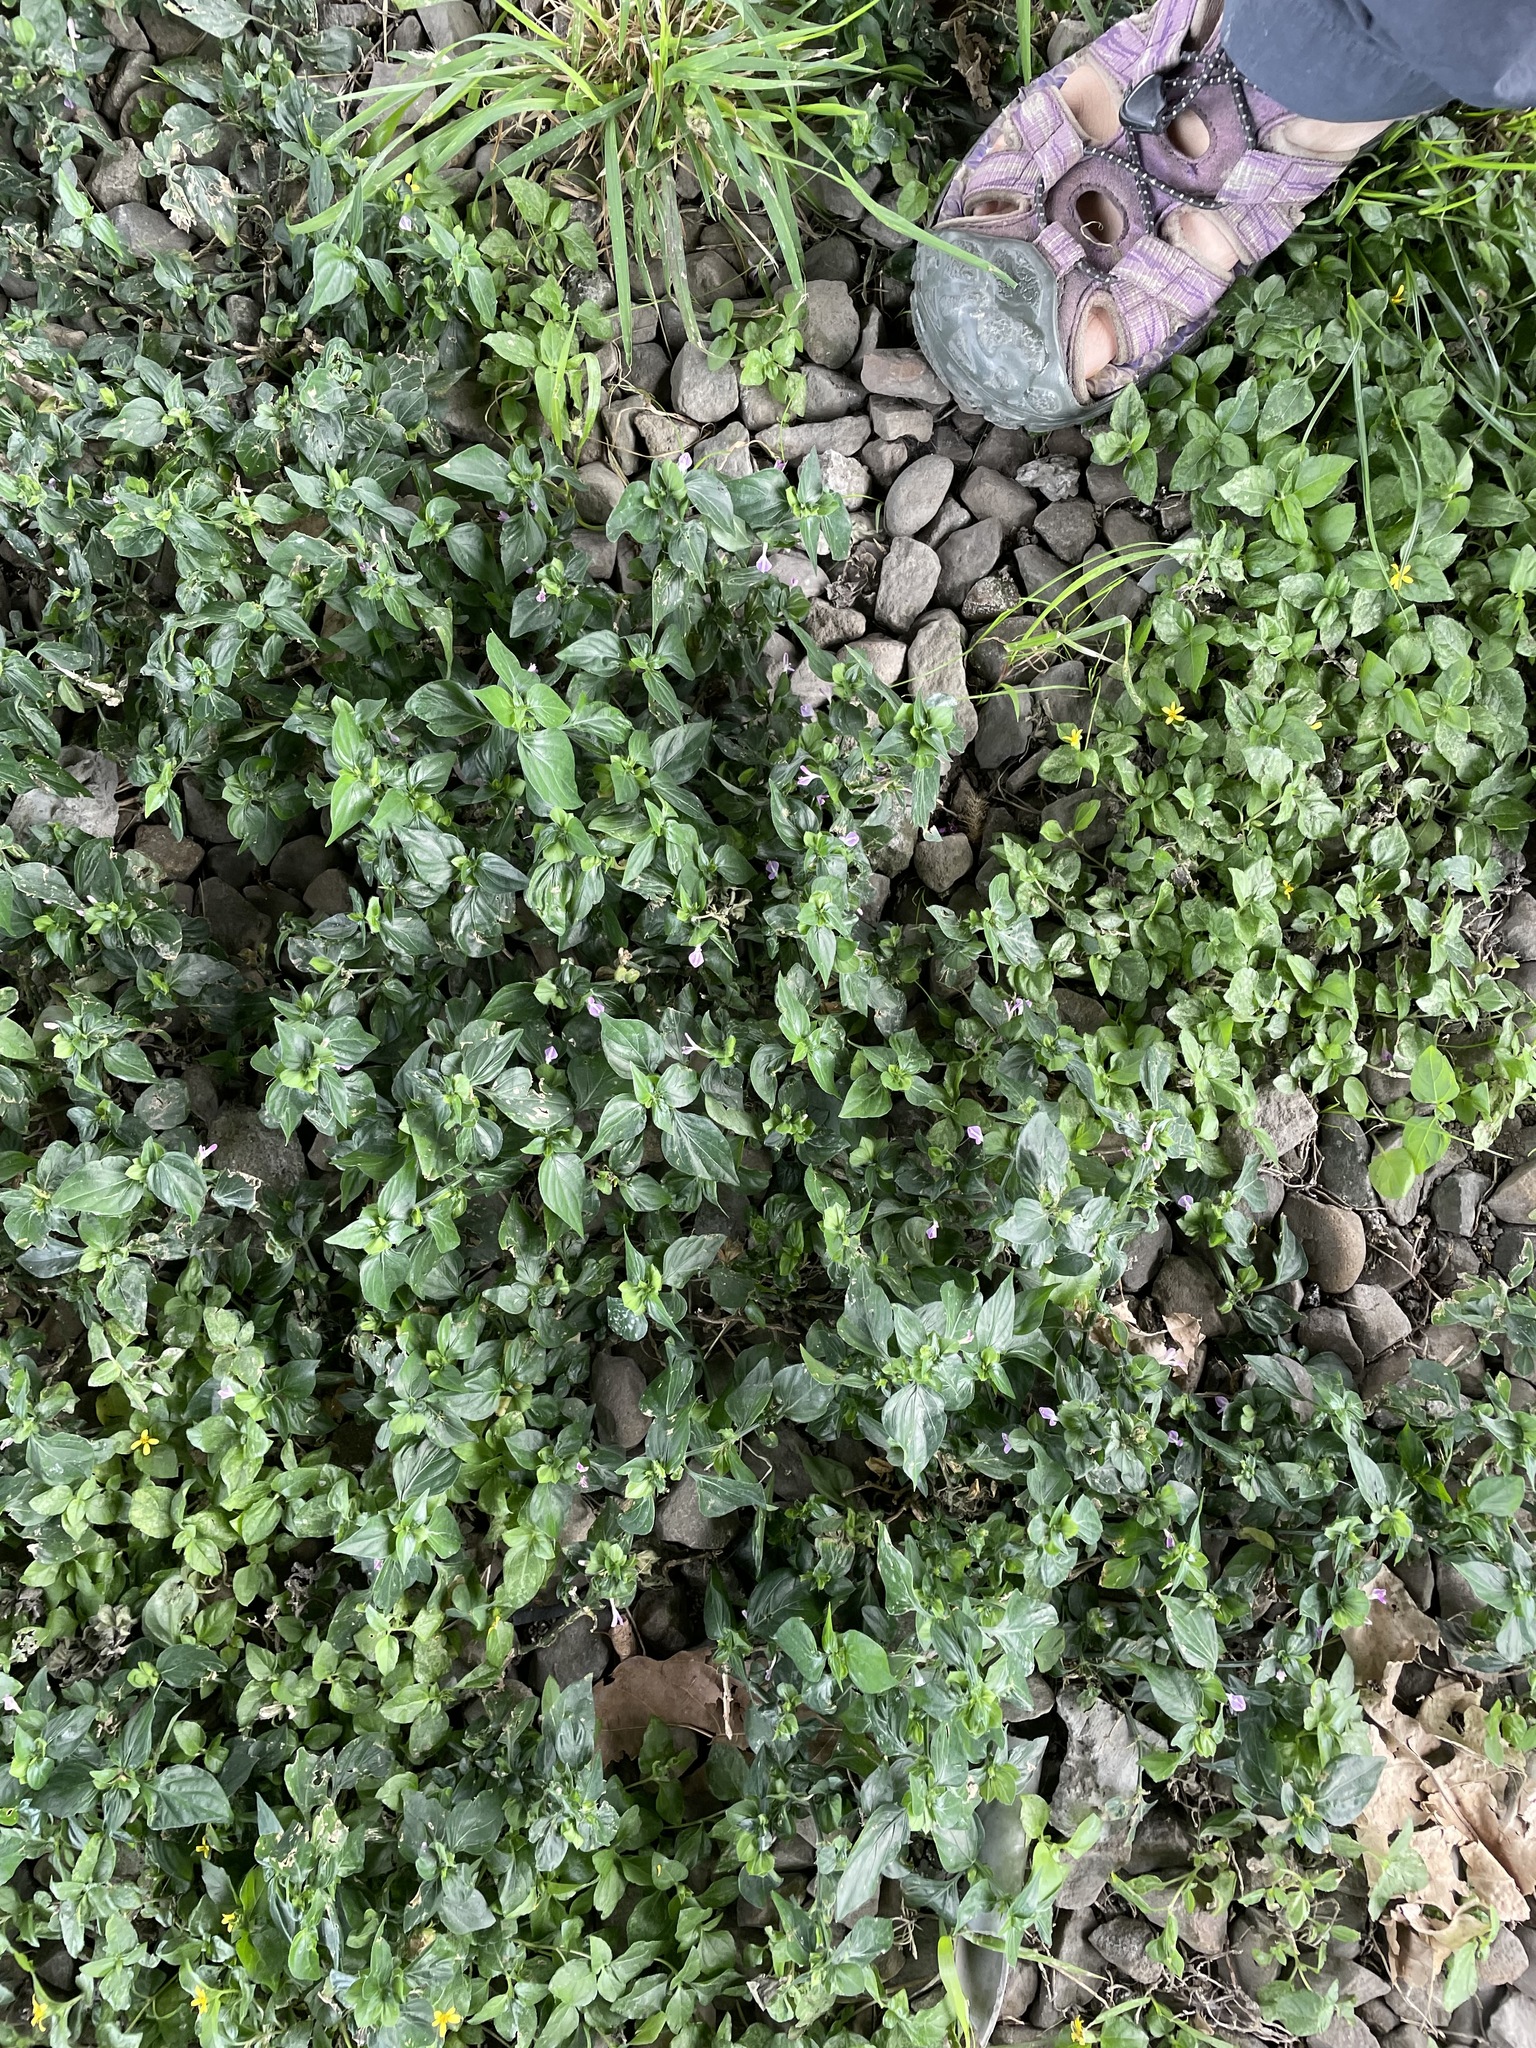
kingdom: Plantae
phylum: Tracheophyta
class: Magnoliopsida
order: Lamiales
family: Acanthaceae
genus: Dicliptera
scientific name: Dicliptera chinensis
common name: Chinese foldwing
